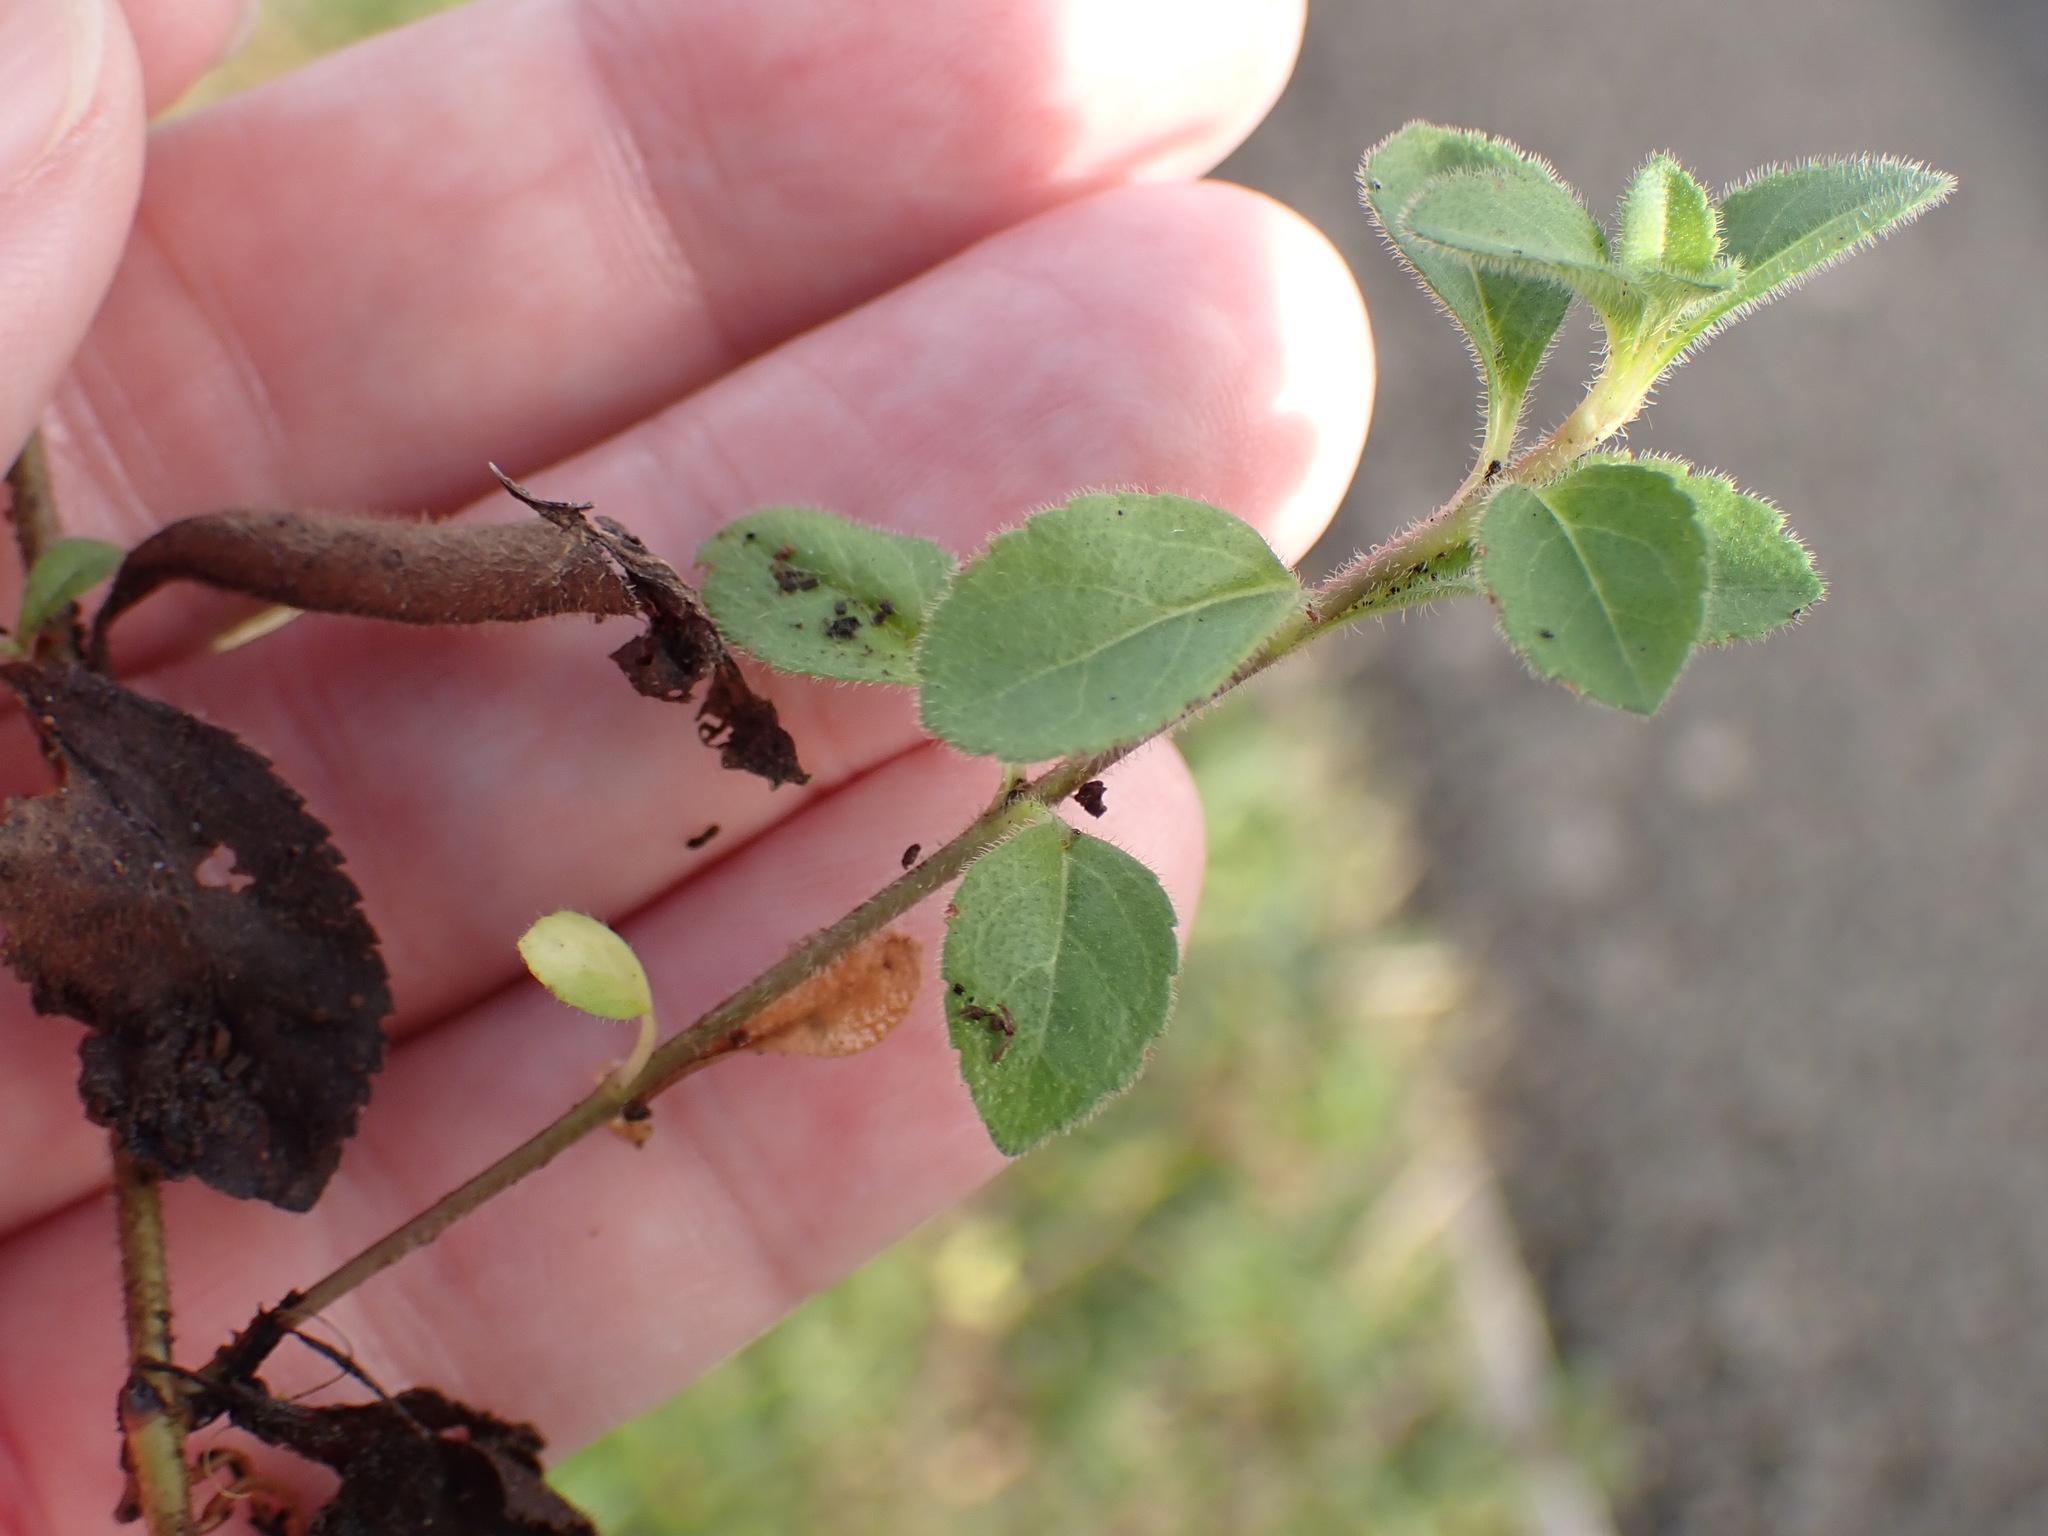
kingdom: Plantae
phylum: Tracheophyta
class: Magnoliopsida
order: Lamiales
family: Plantaginaceae
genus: Veronica
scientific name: Veronica officinalis
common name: Common speedwell
